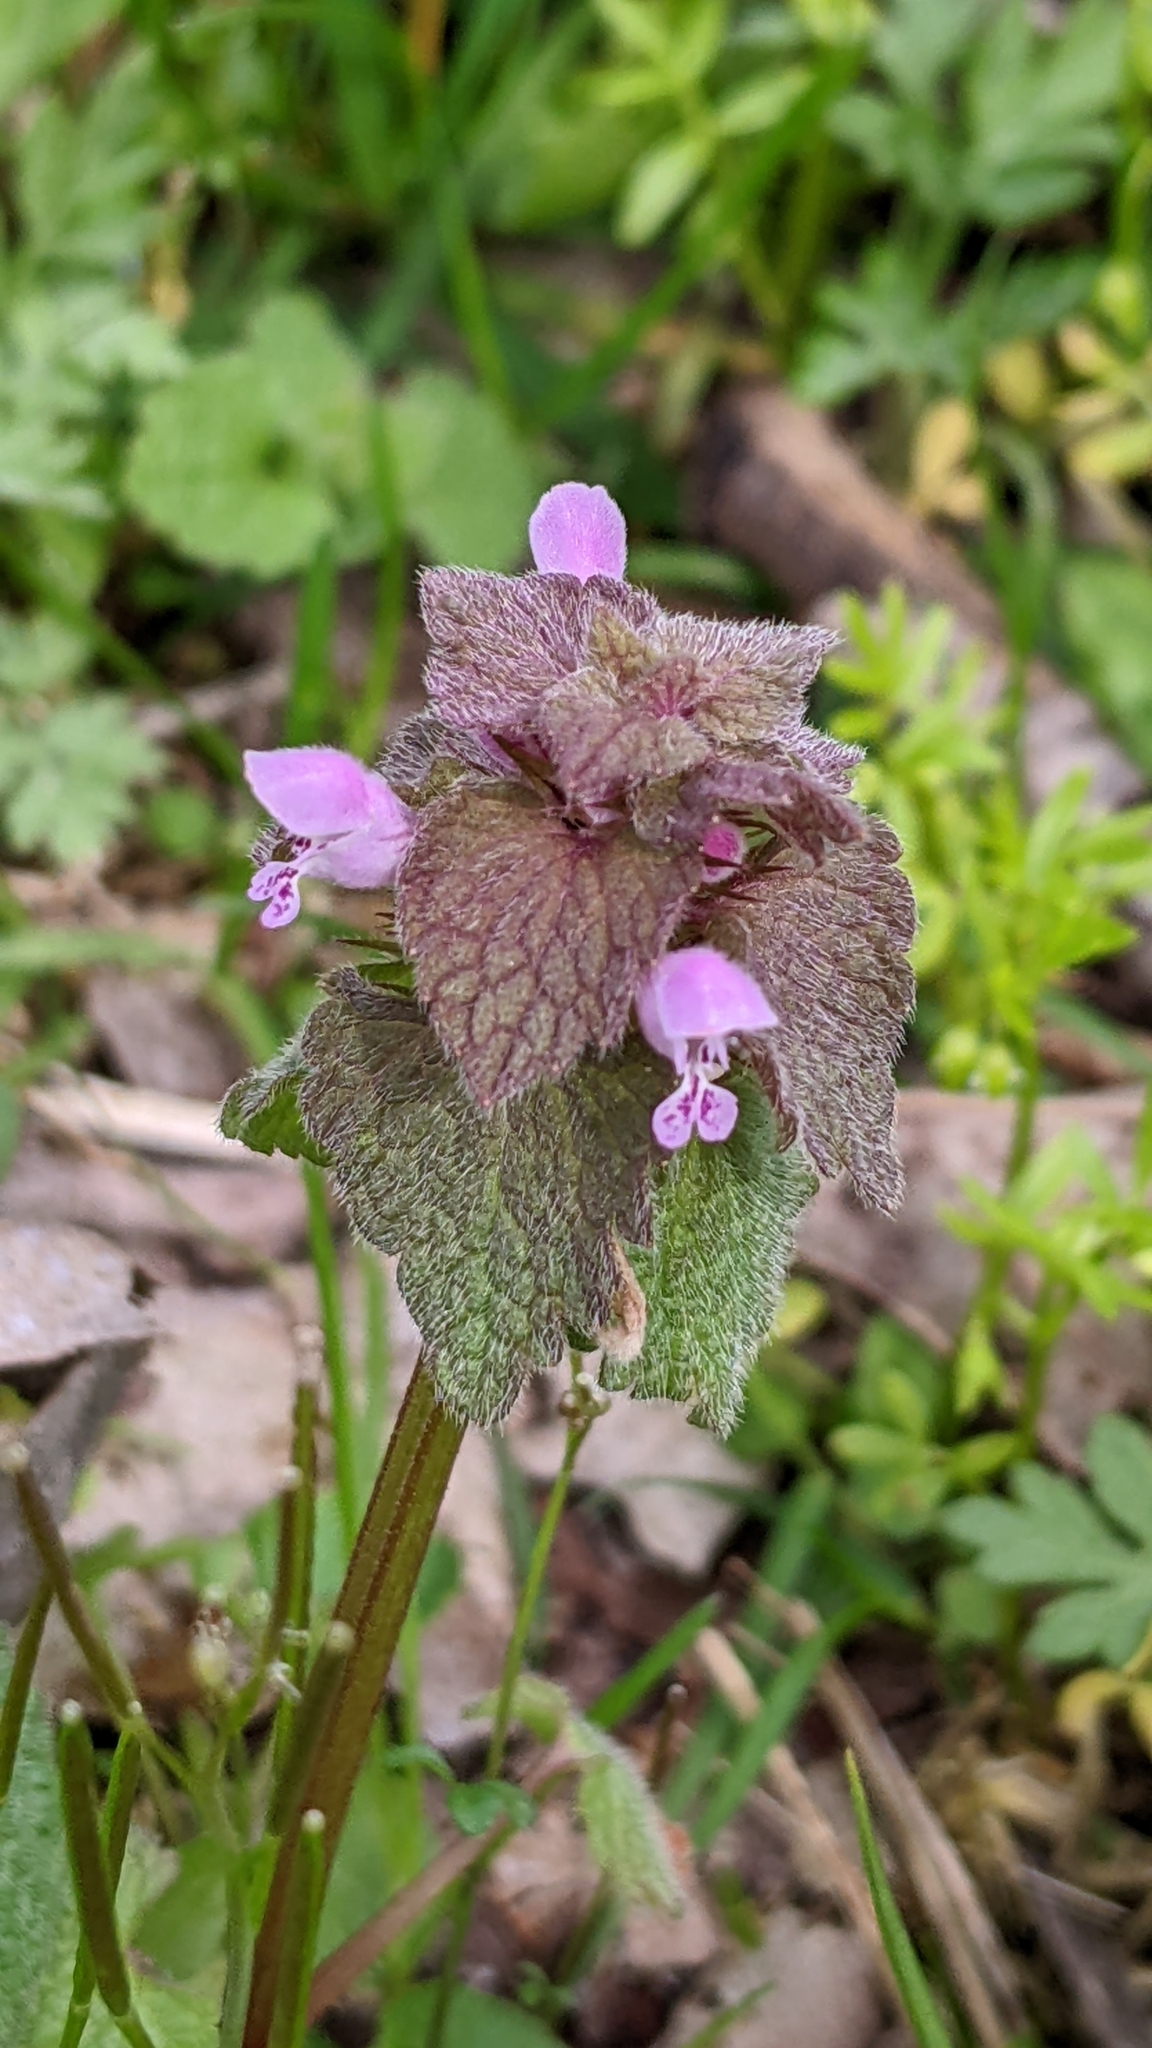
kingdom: Plantae
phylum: Tracheophyta
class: Magnoliopsida
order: Lamiales
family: Lamiaceae
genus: Lamium
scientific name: Lamium purpureum
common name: Red dead-nettle
